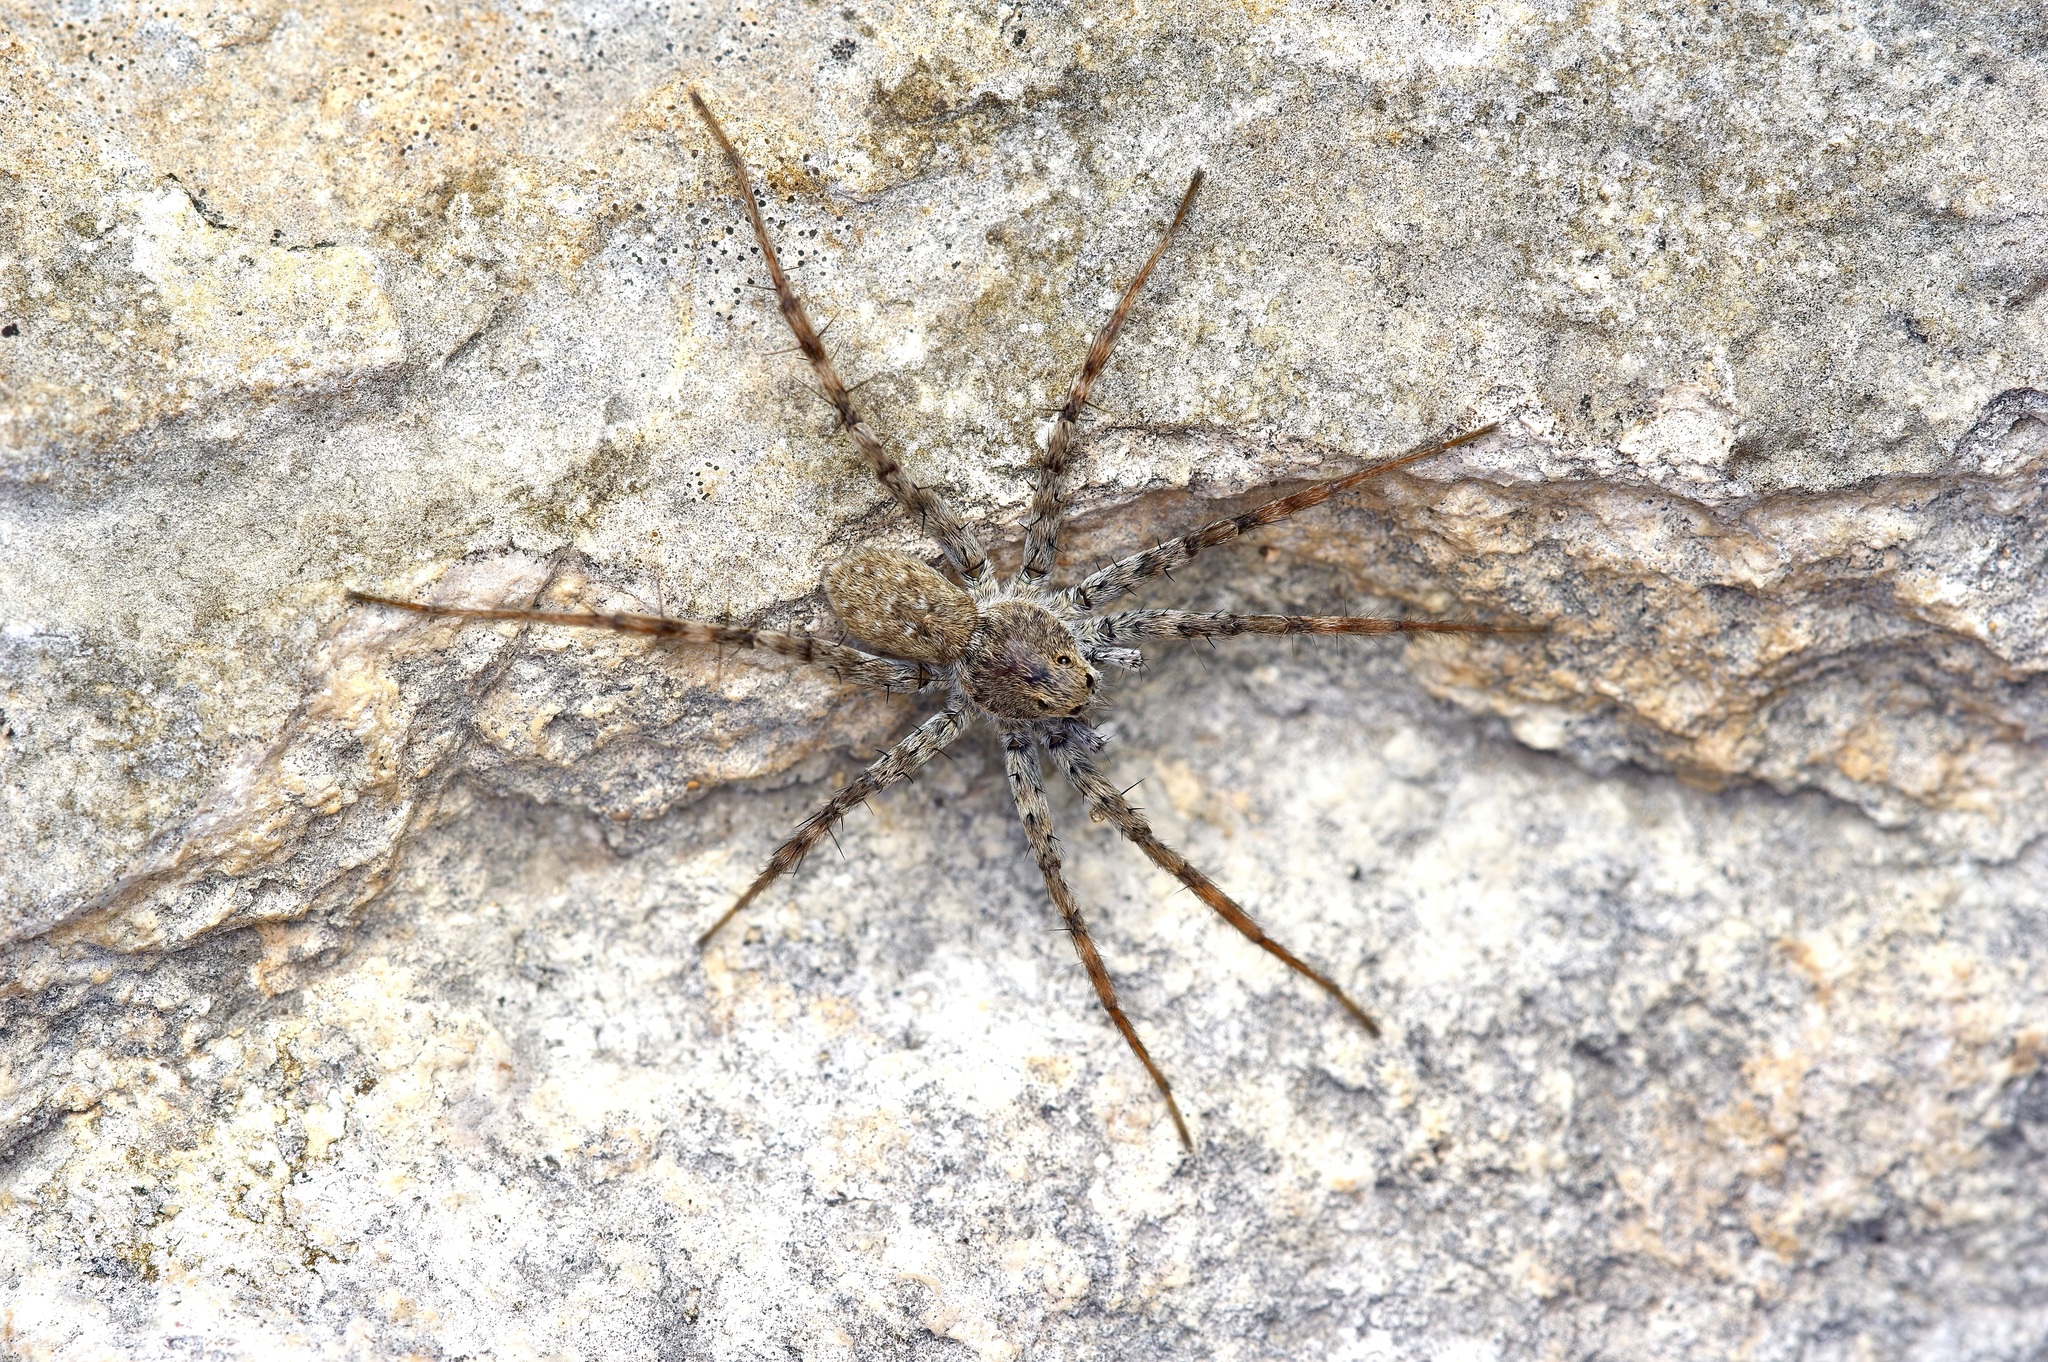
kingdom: Animalia
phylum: Arthropoda
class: Arachnida
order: Araneae
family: Lycosidae
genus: Pardosa
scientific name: Pardosa mercurialis
